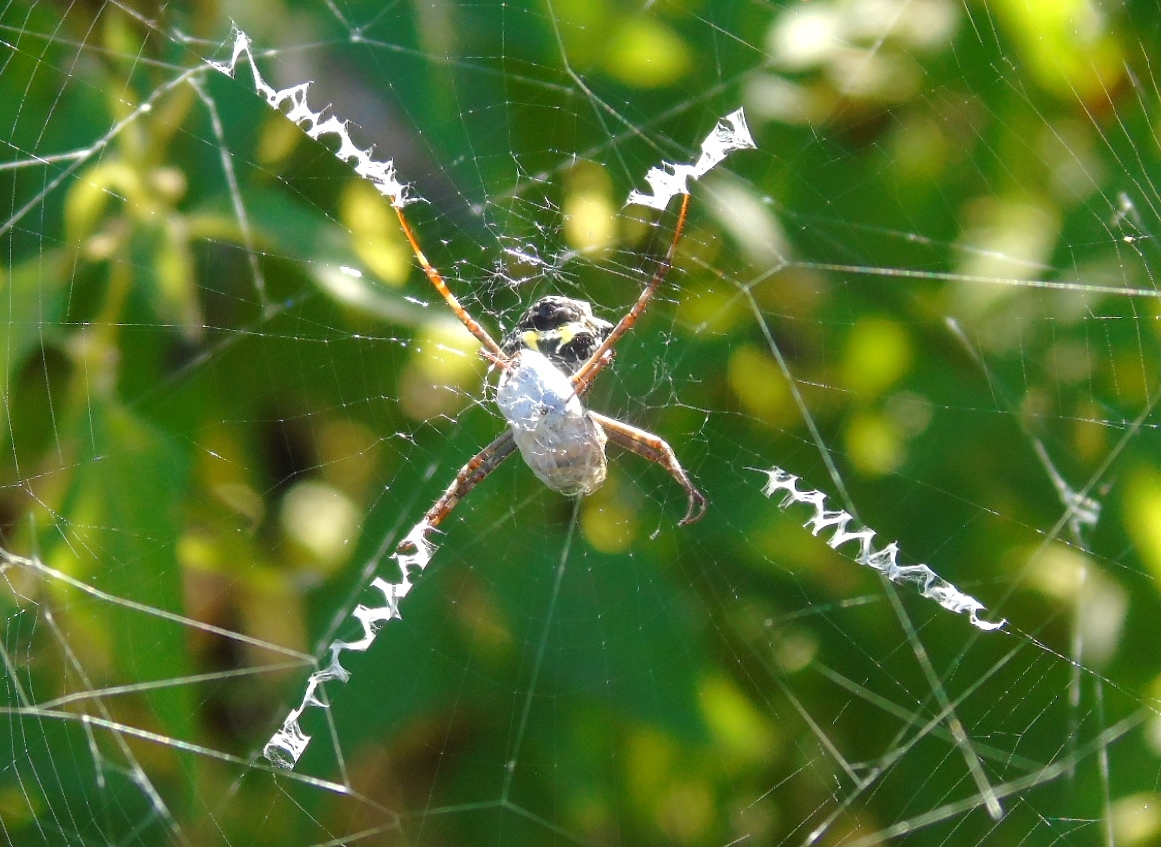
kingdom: Animalia
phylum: Arthropoda
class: Arachnida
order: Araneae
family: Araneidae
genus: Argiope
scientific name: Argiope argentata
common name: Orb weavers
